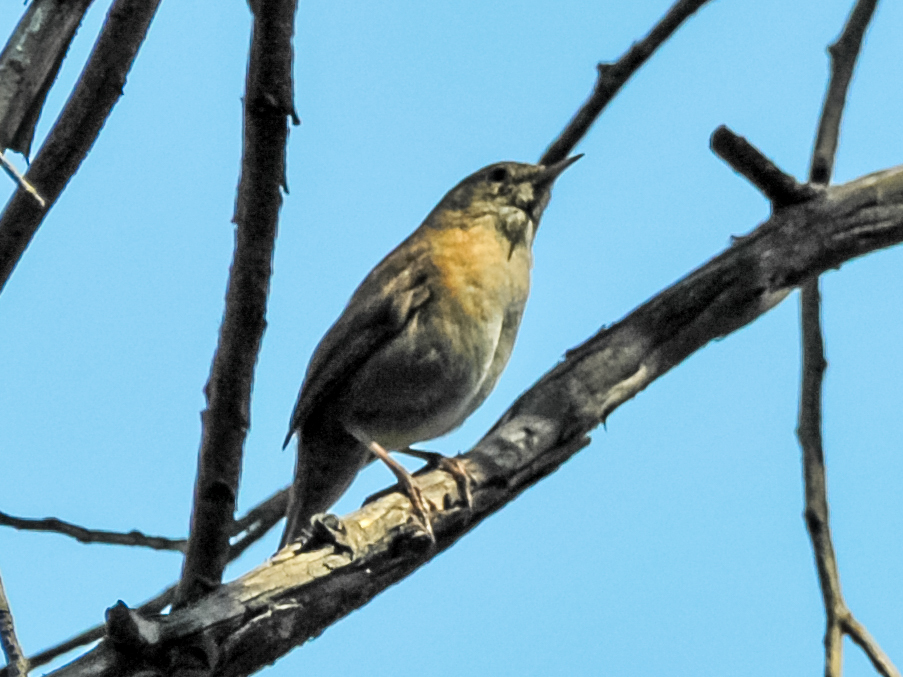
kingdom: Animalia
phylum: Chordata
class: Aves
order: Passeriformes
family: Troglodytidae
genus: Troglodytes
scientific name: Troglodytes aedon
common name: House wren
